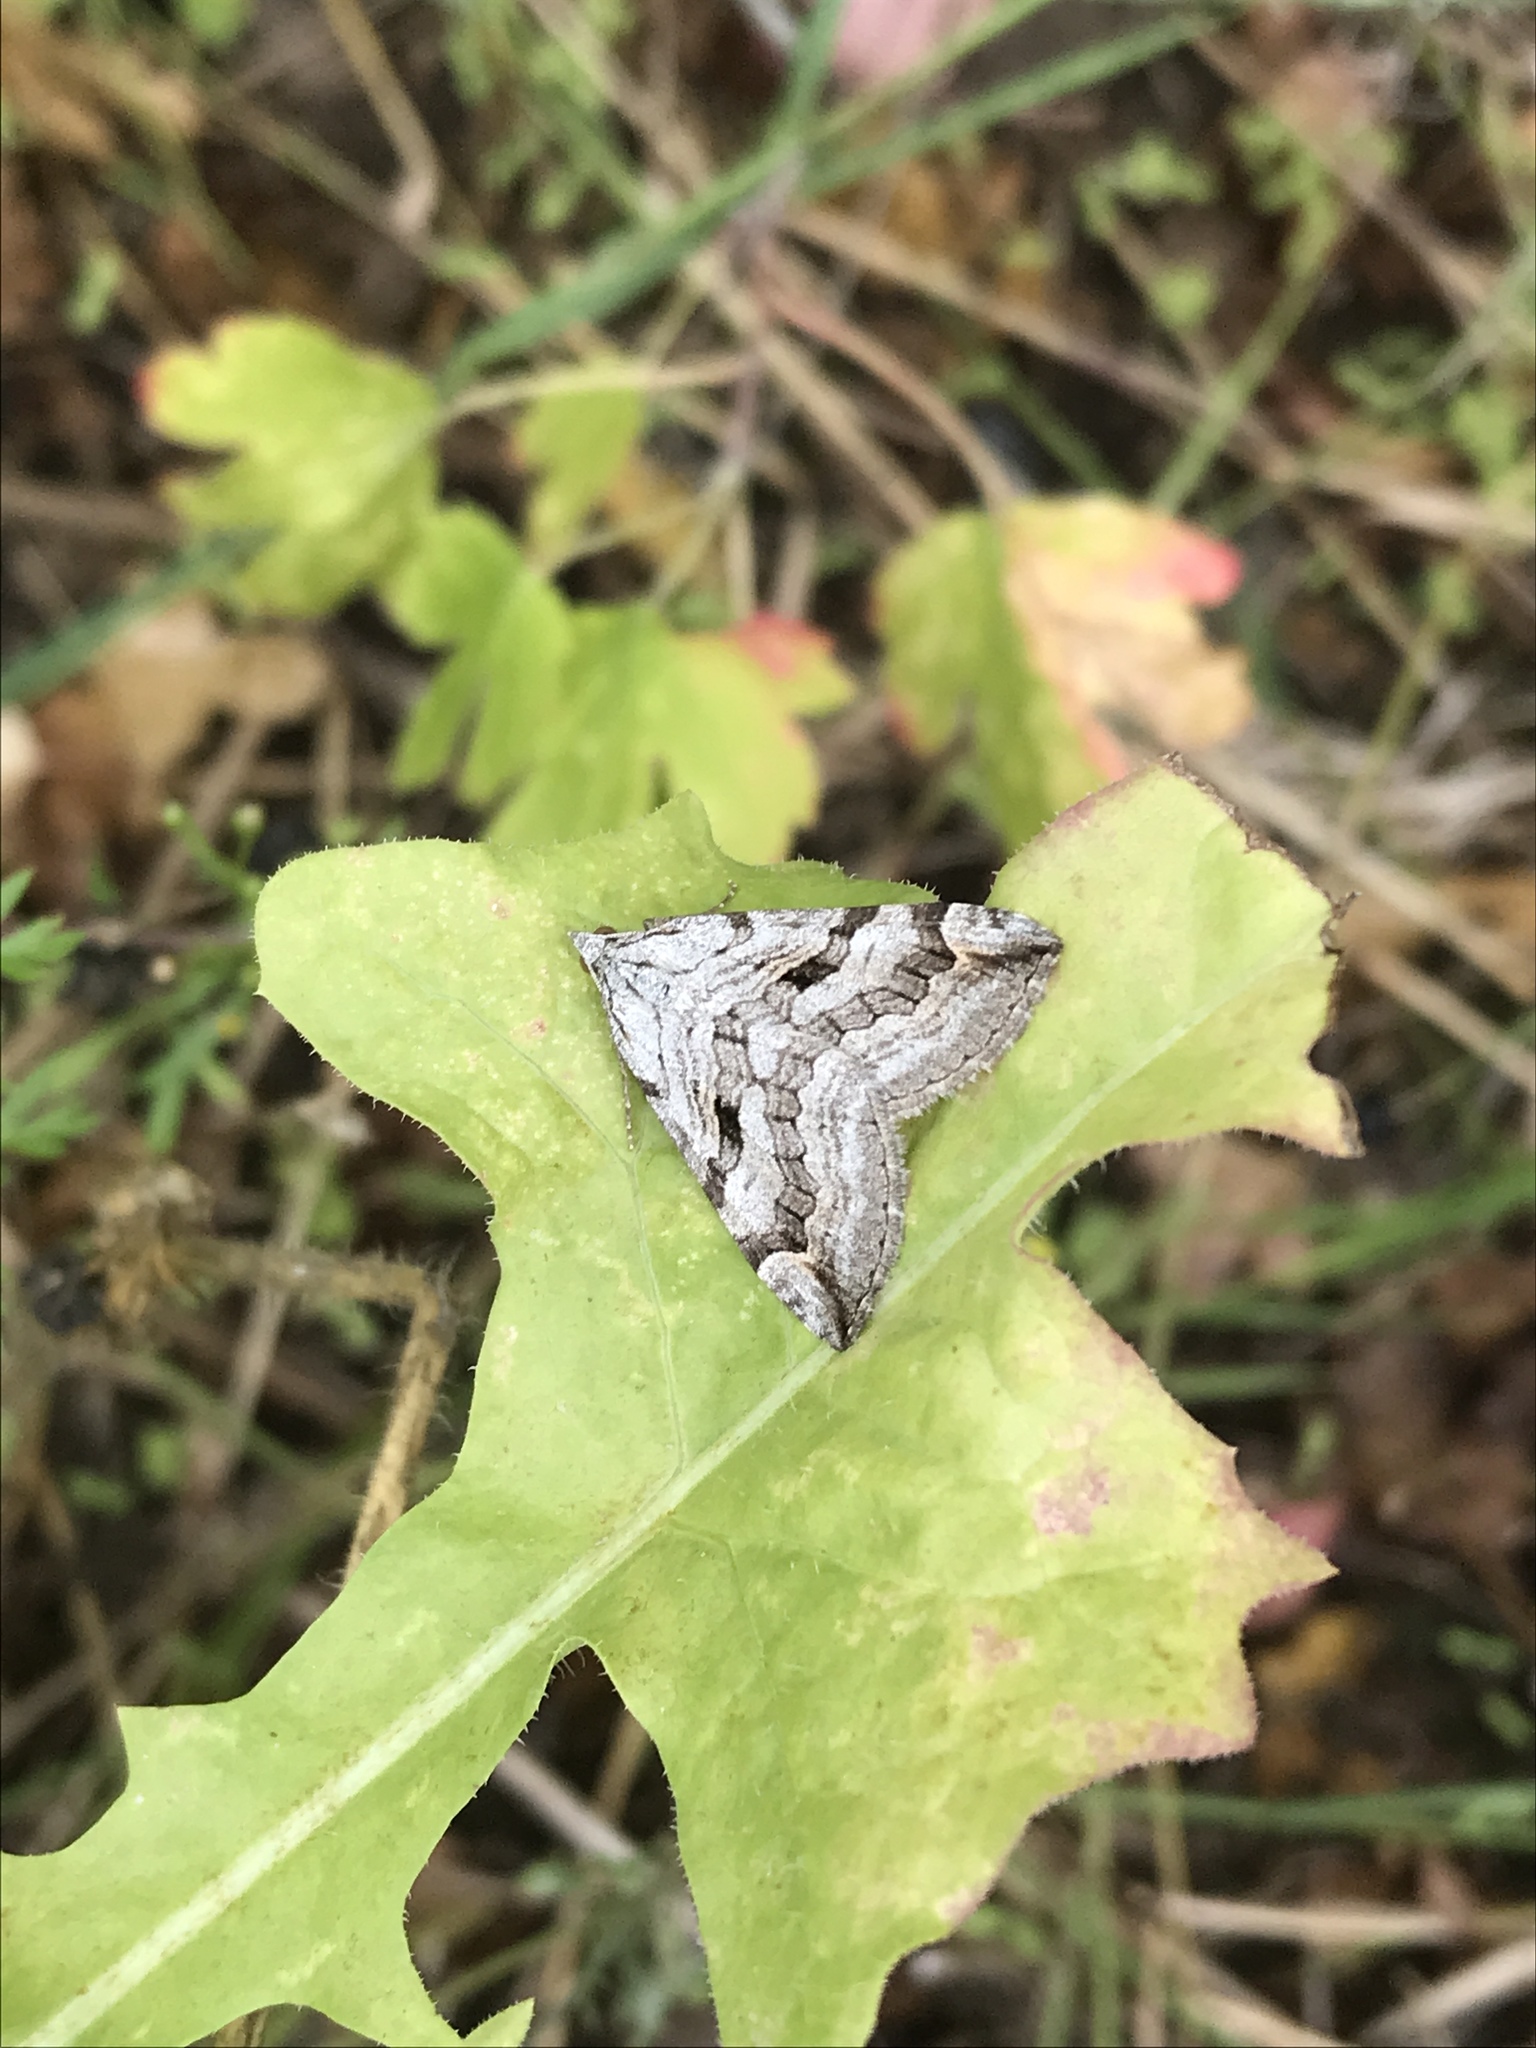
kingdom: Animalia
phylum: Arthropoda
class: Insecta
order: Lepidoptera
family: Geometridae
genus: Aplocera
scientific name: Aplocera plagiata
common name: Treble-bar
